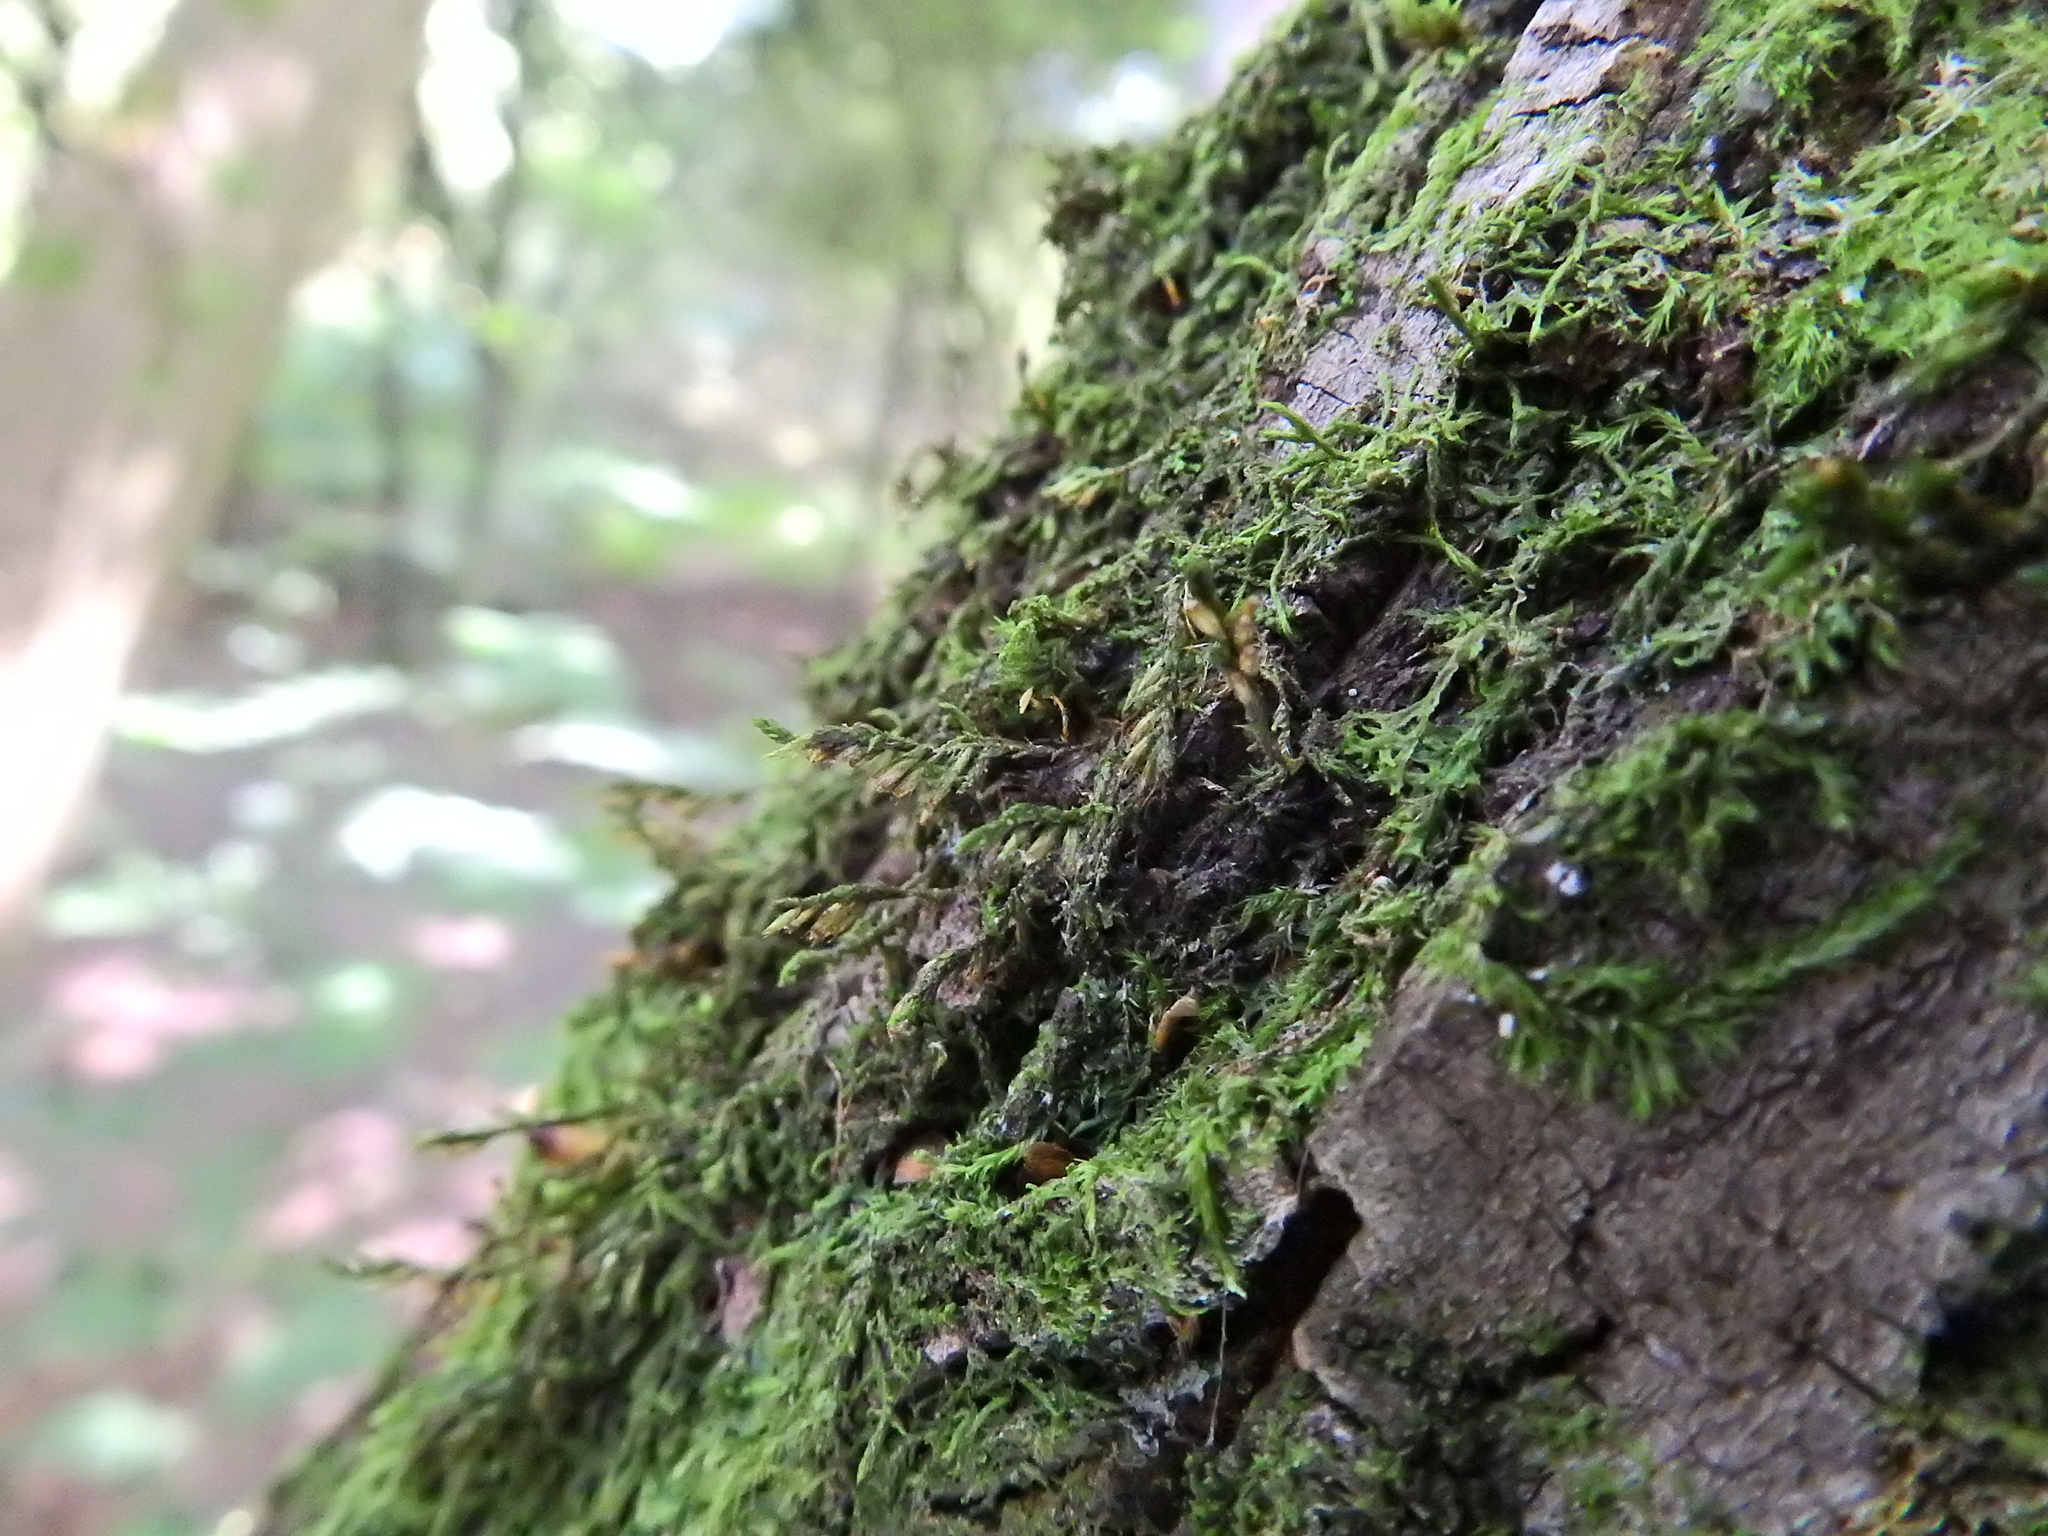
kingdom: Plantae
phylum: Bryophyta
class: Bryopsida
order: Hypnales
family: Cryphaeaceae
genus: Cryphaea
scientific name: Cryphaea heteromalla
